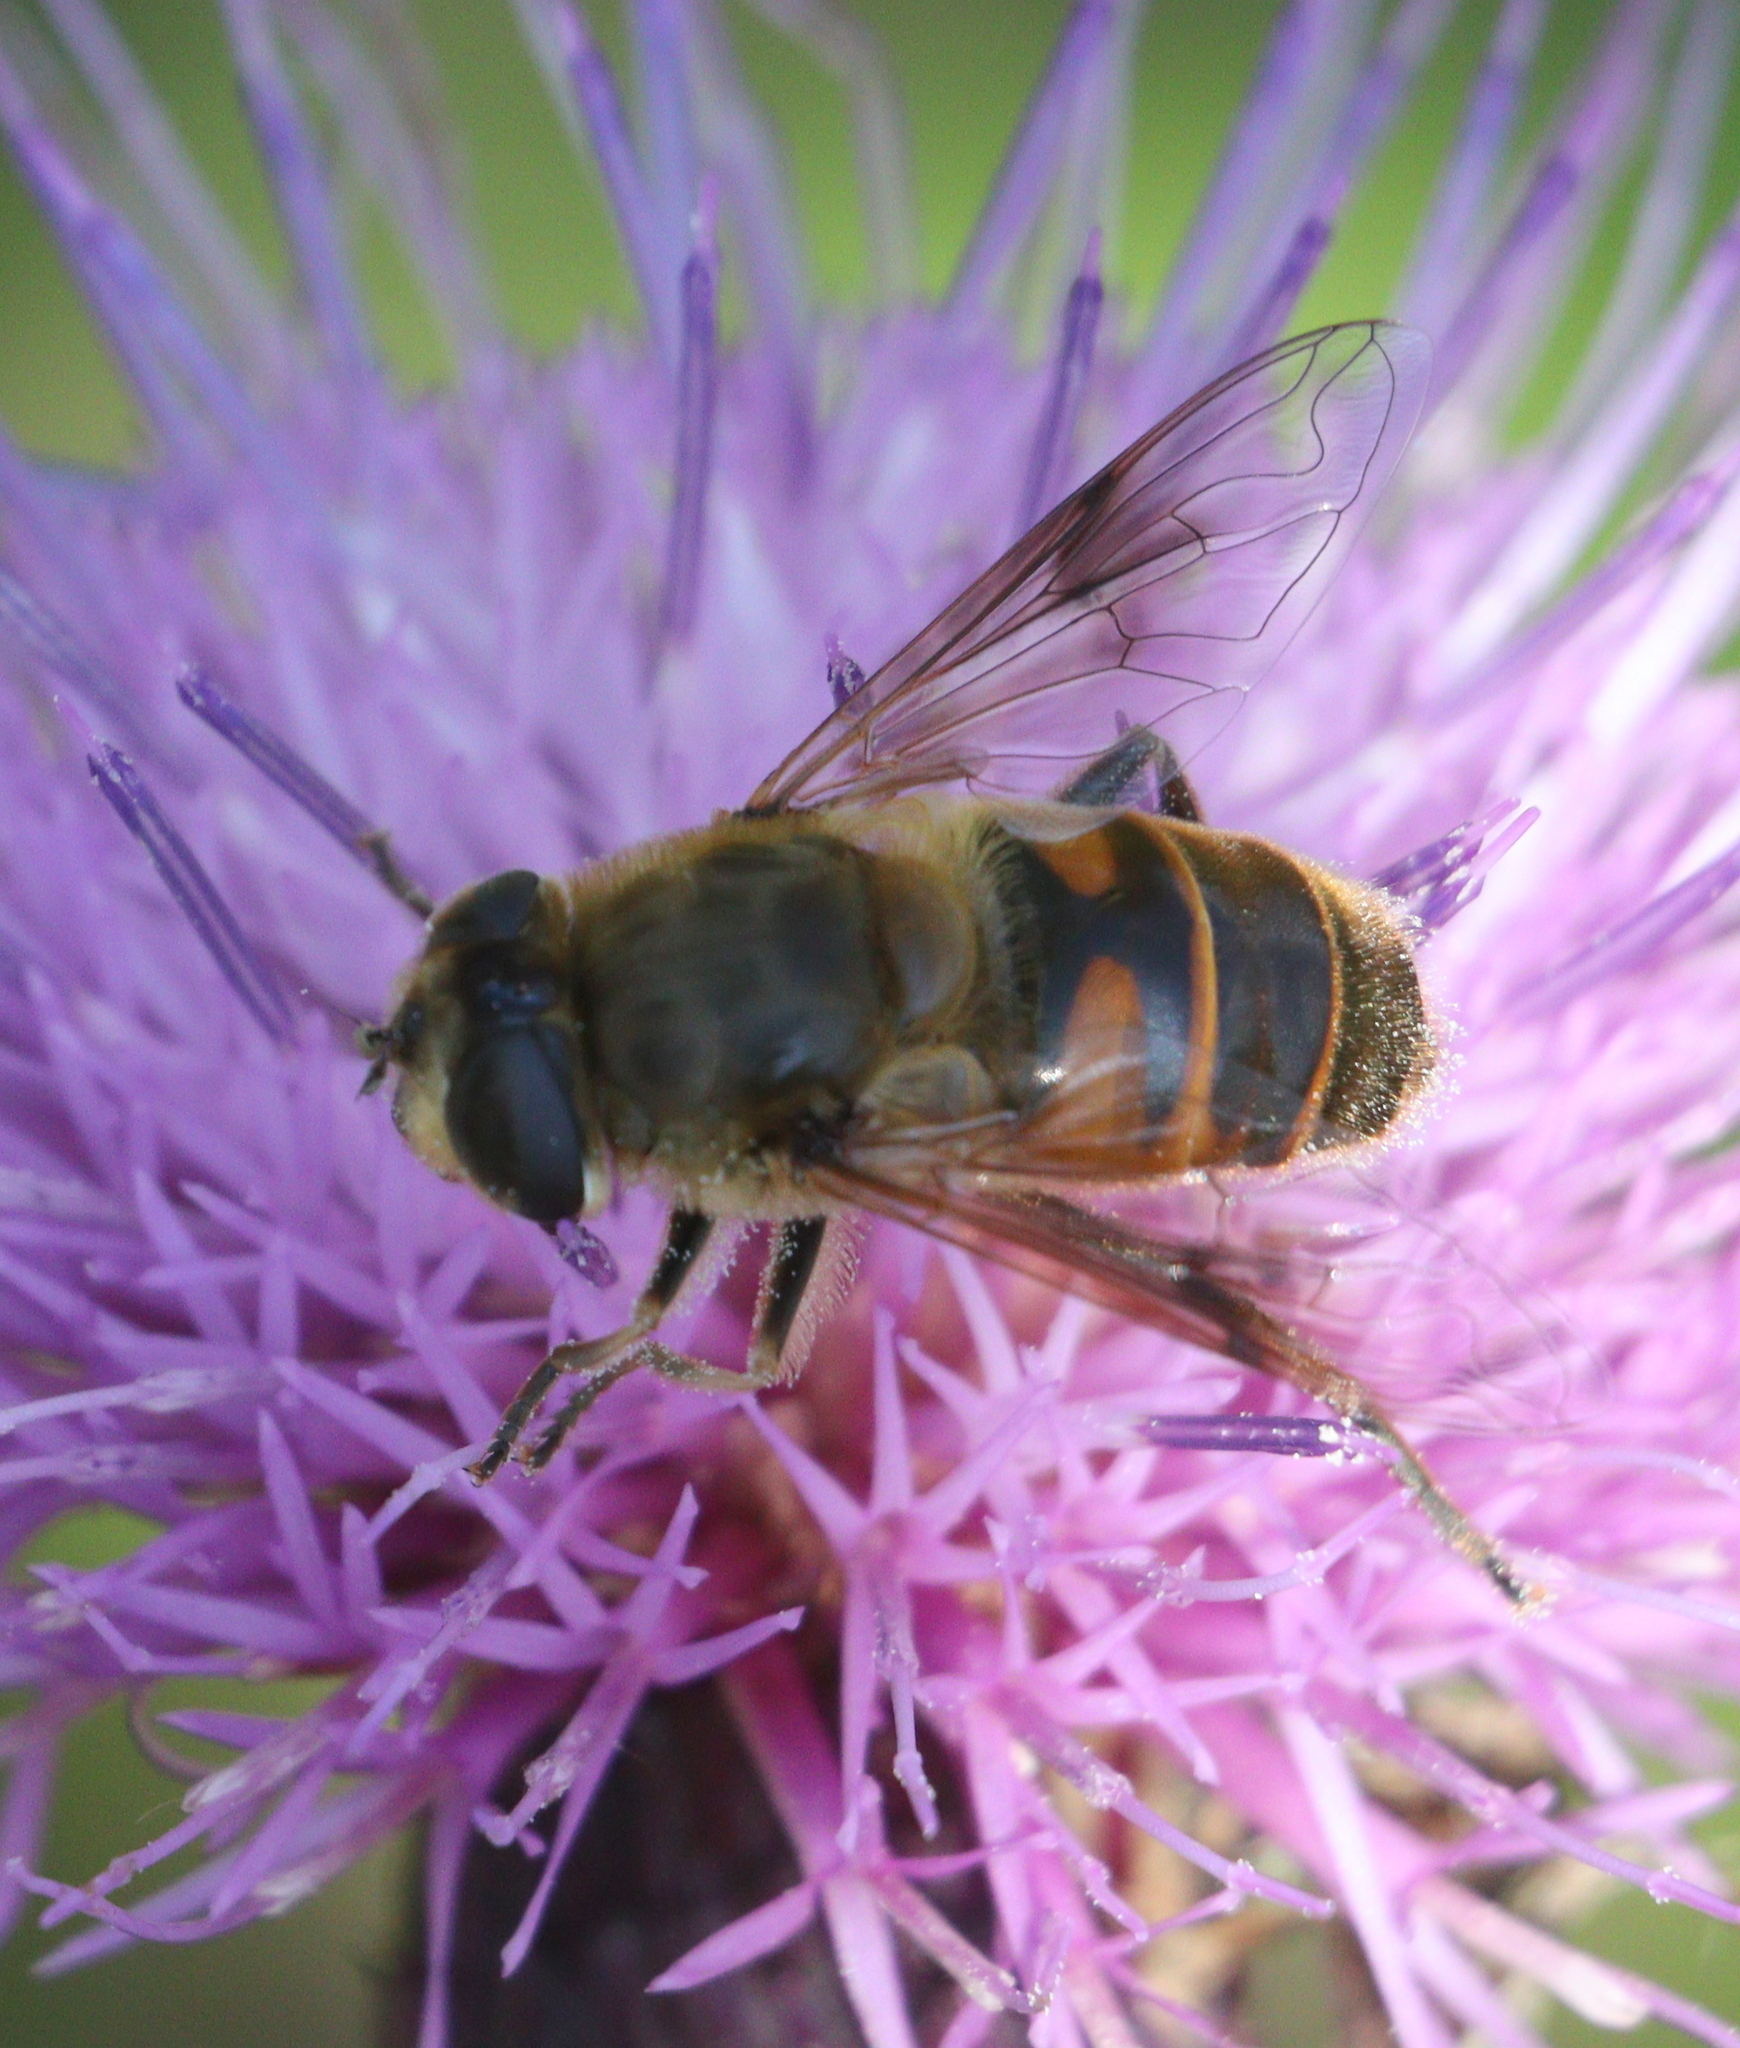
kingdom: Animalia
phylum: Arthropoda
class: Insecta
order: Diptera
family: Syrphidae
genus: Eristalis
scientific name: Eristalis tenax
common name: Drone fly
